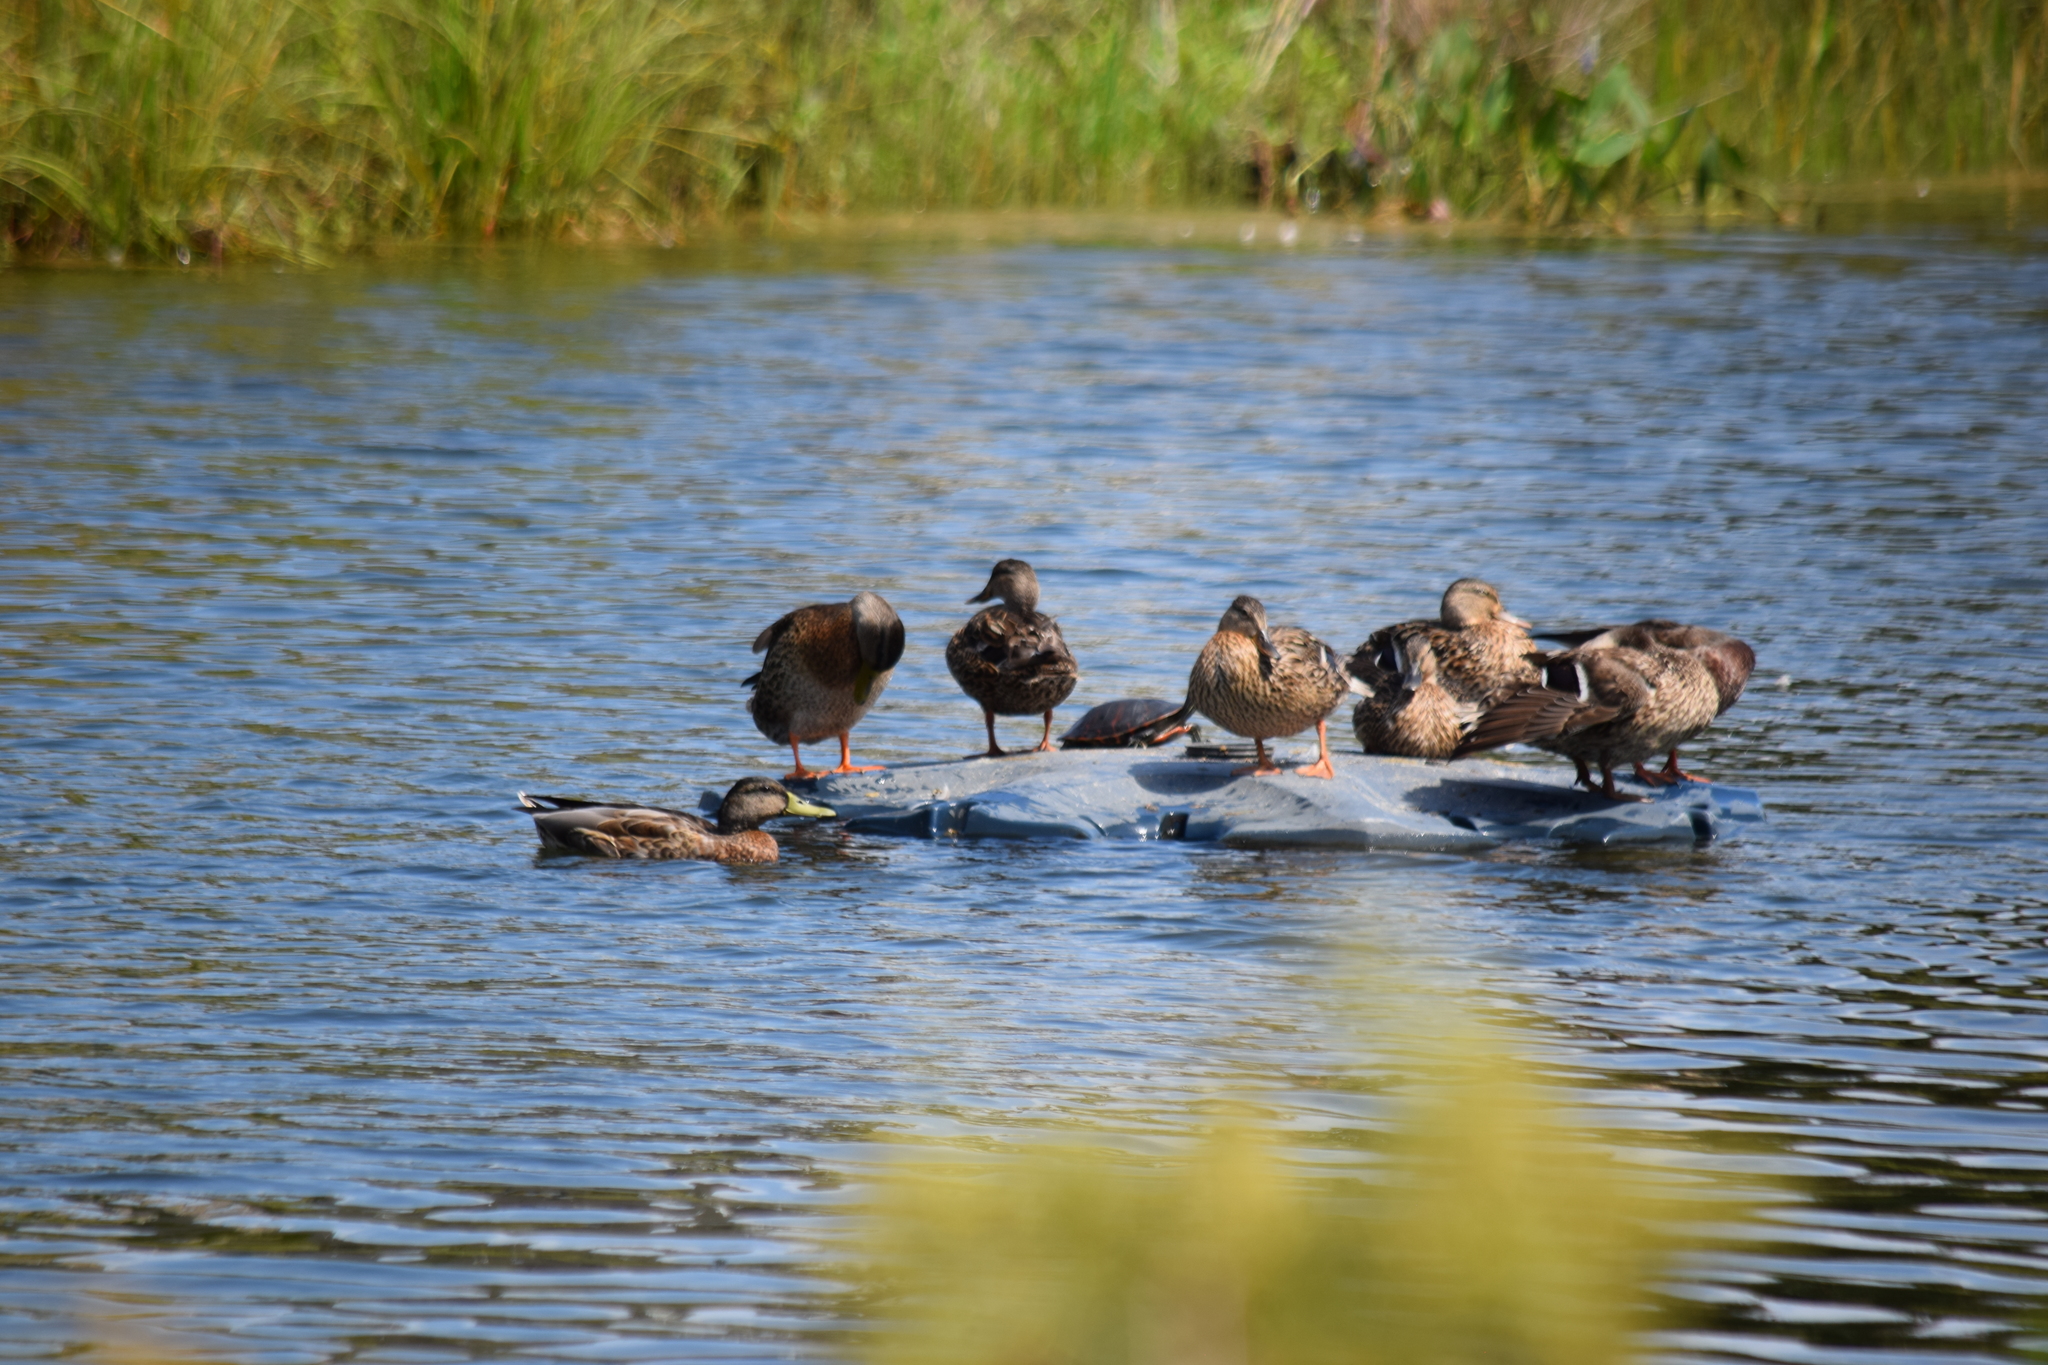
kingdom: Animalia
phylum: Chordata
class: Aves
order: Anseriformes
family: Anatidae
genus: Anas
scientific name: Anas platyrhynchos
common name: Mallard
